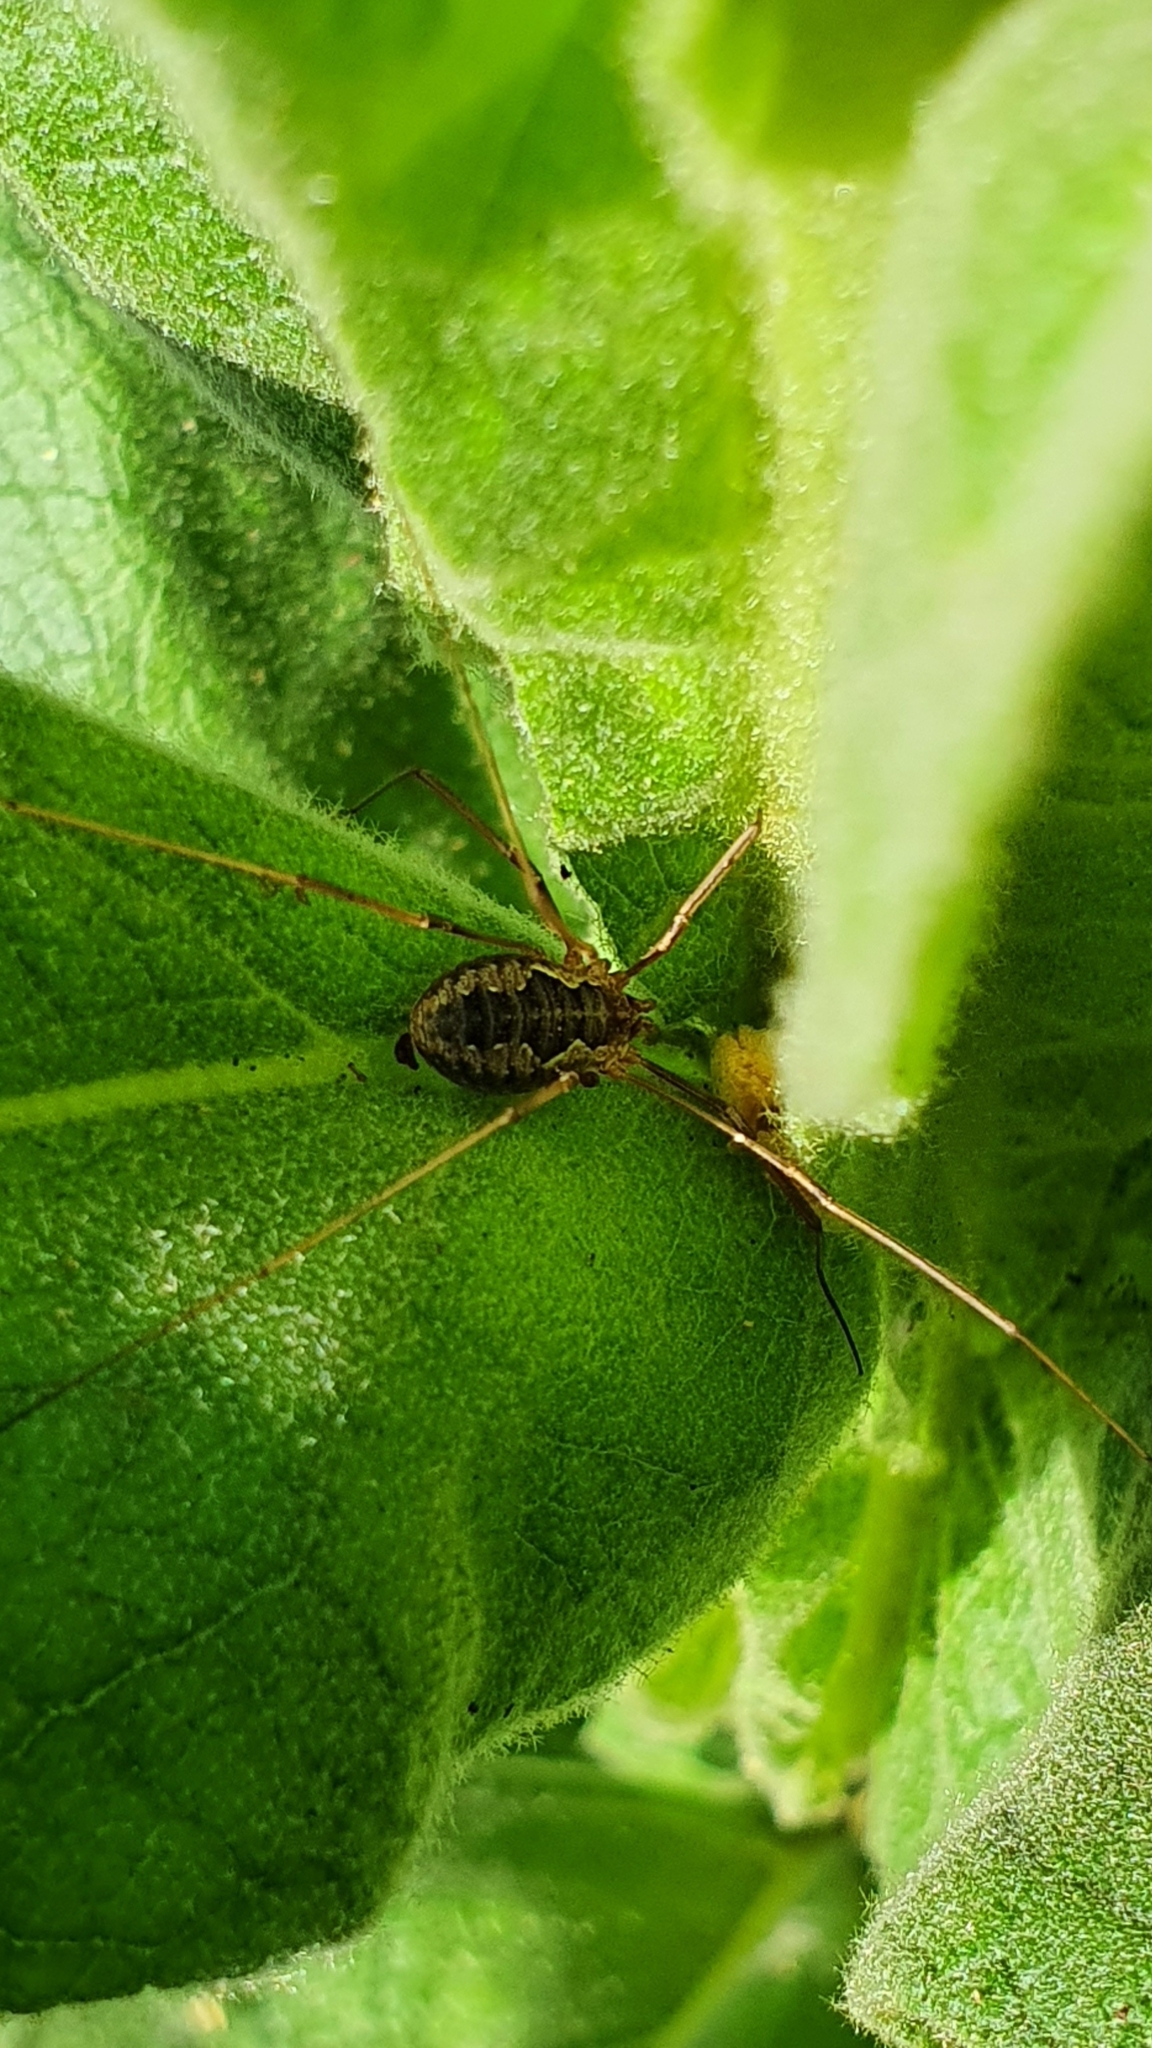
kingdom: Animalia
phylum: Arthropoda
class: Arachnida
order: Opiliones
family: Phalangiidae
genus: Phalangium
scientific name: Phalangium opilio
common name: Daddy longleg
